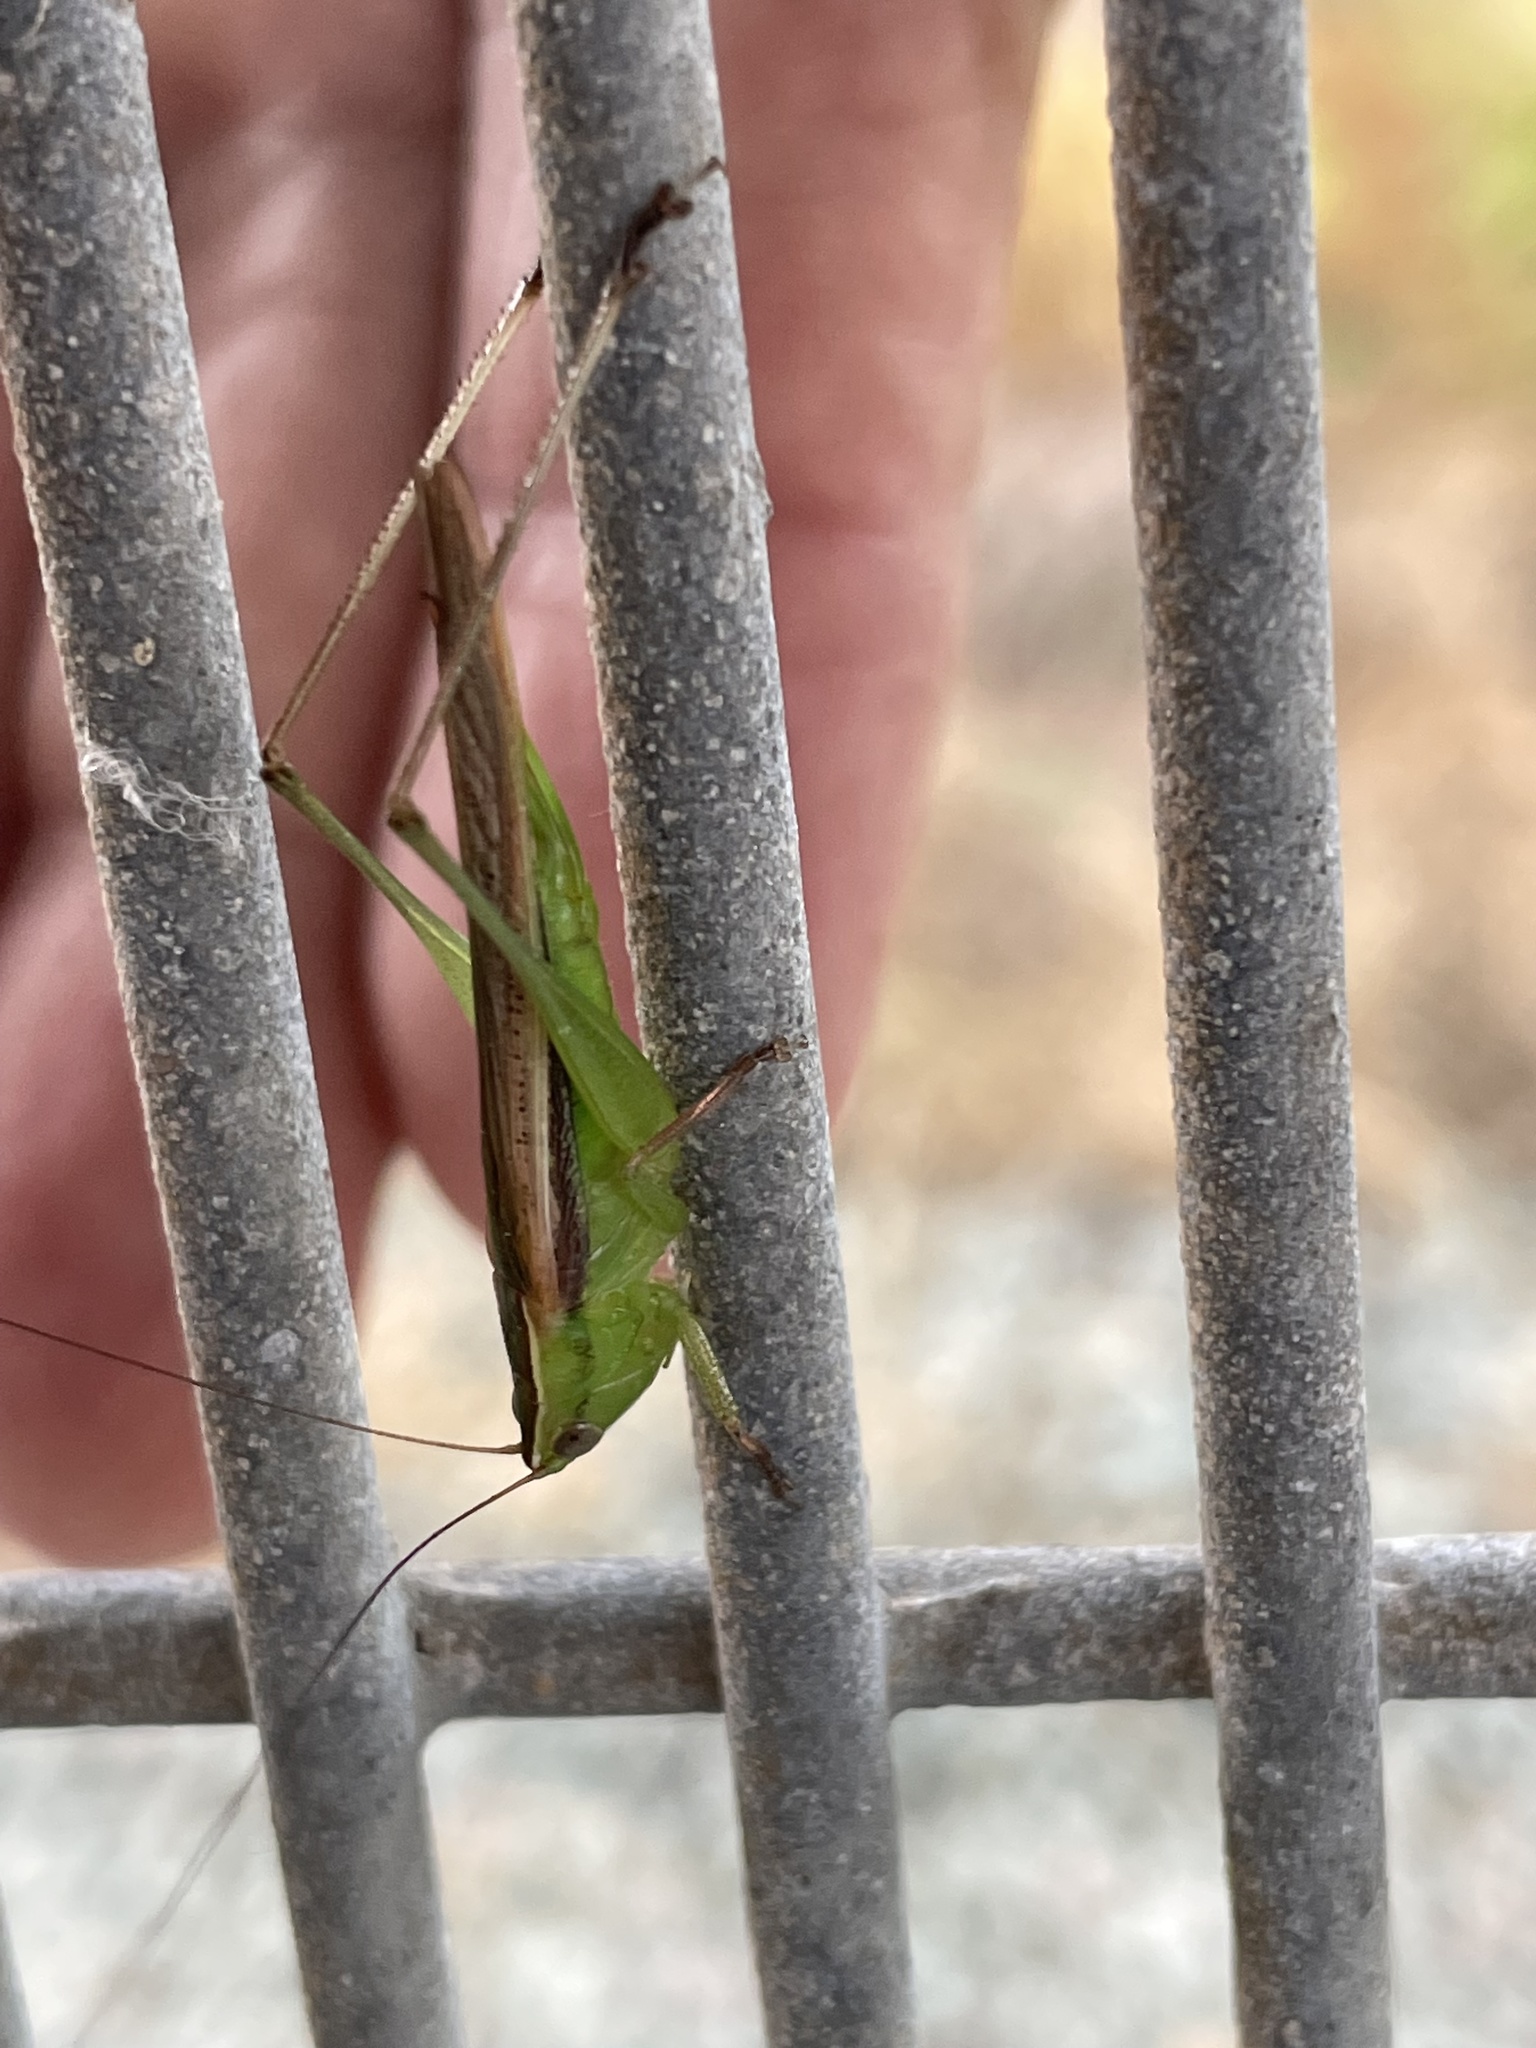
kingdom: Animalia
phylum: Arthropoda
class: Insecta
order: Orthoptera
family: Tettigoniidae
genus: Conocephalus
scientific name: Conocephalus upoluensis
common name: Upolu meadow katydid
